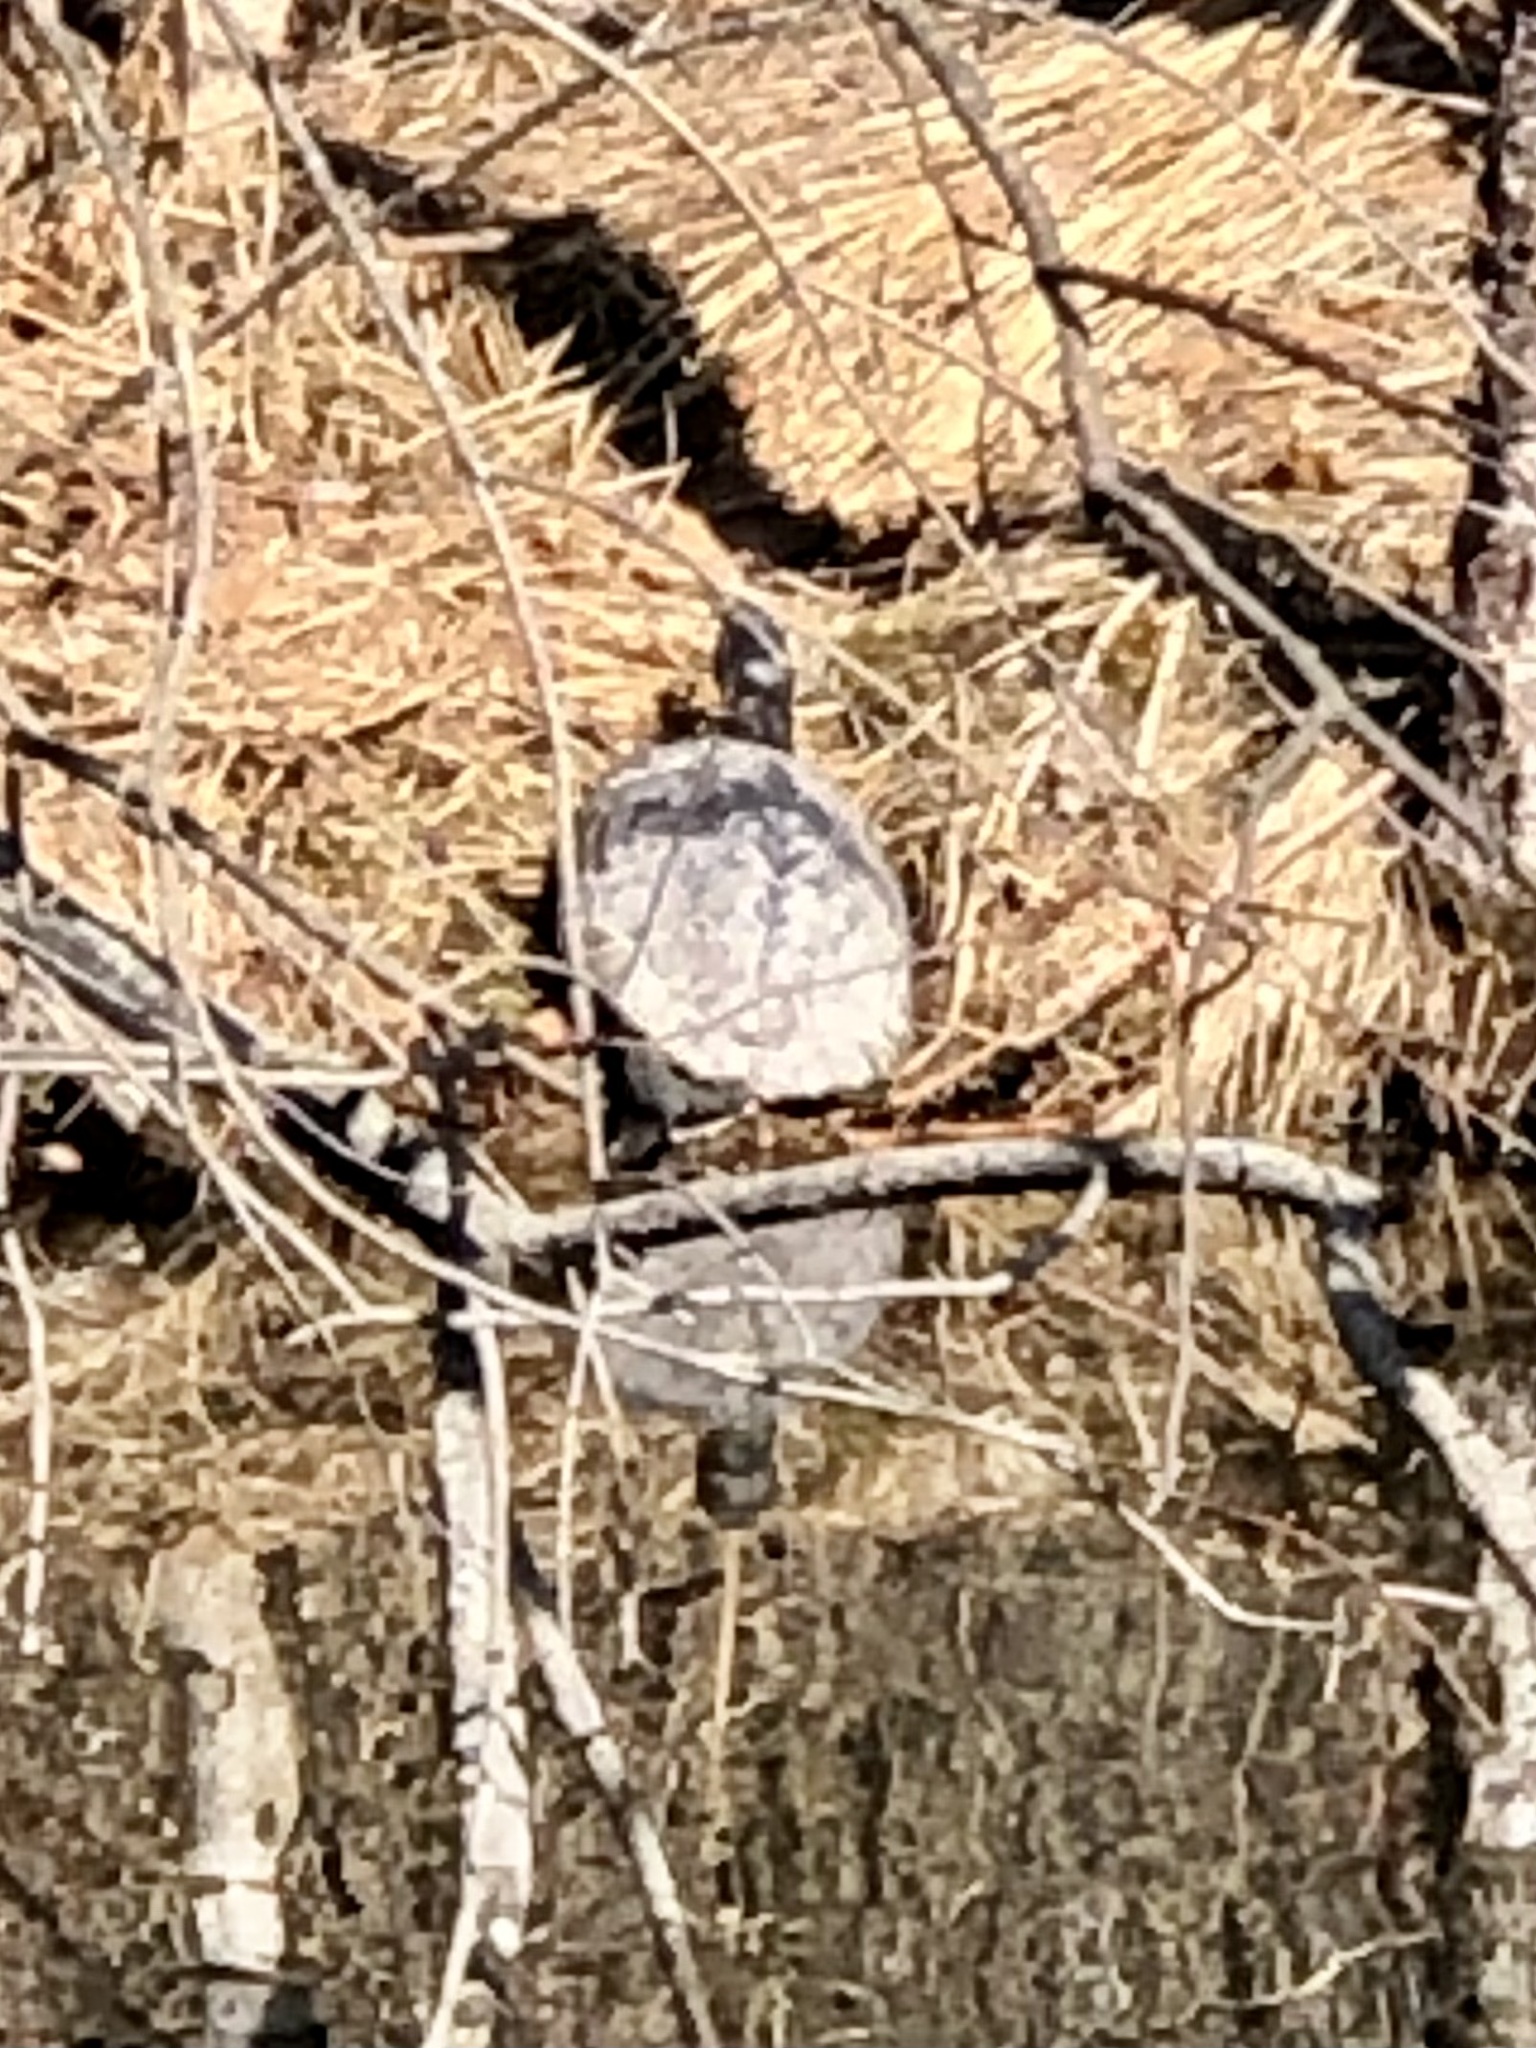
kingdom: Animalia
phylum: Chordata
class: Testudines
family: Emydidae
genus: Trachemys
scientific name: Trachemys scripta
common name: Slider
